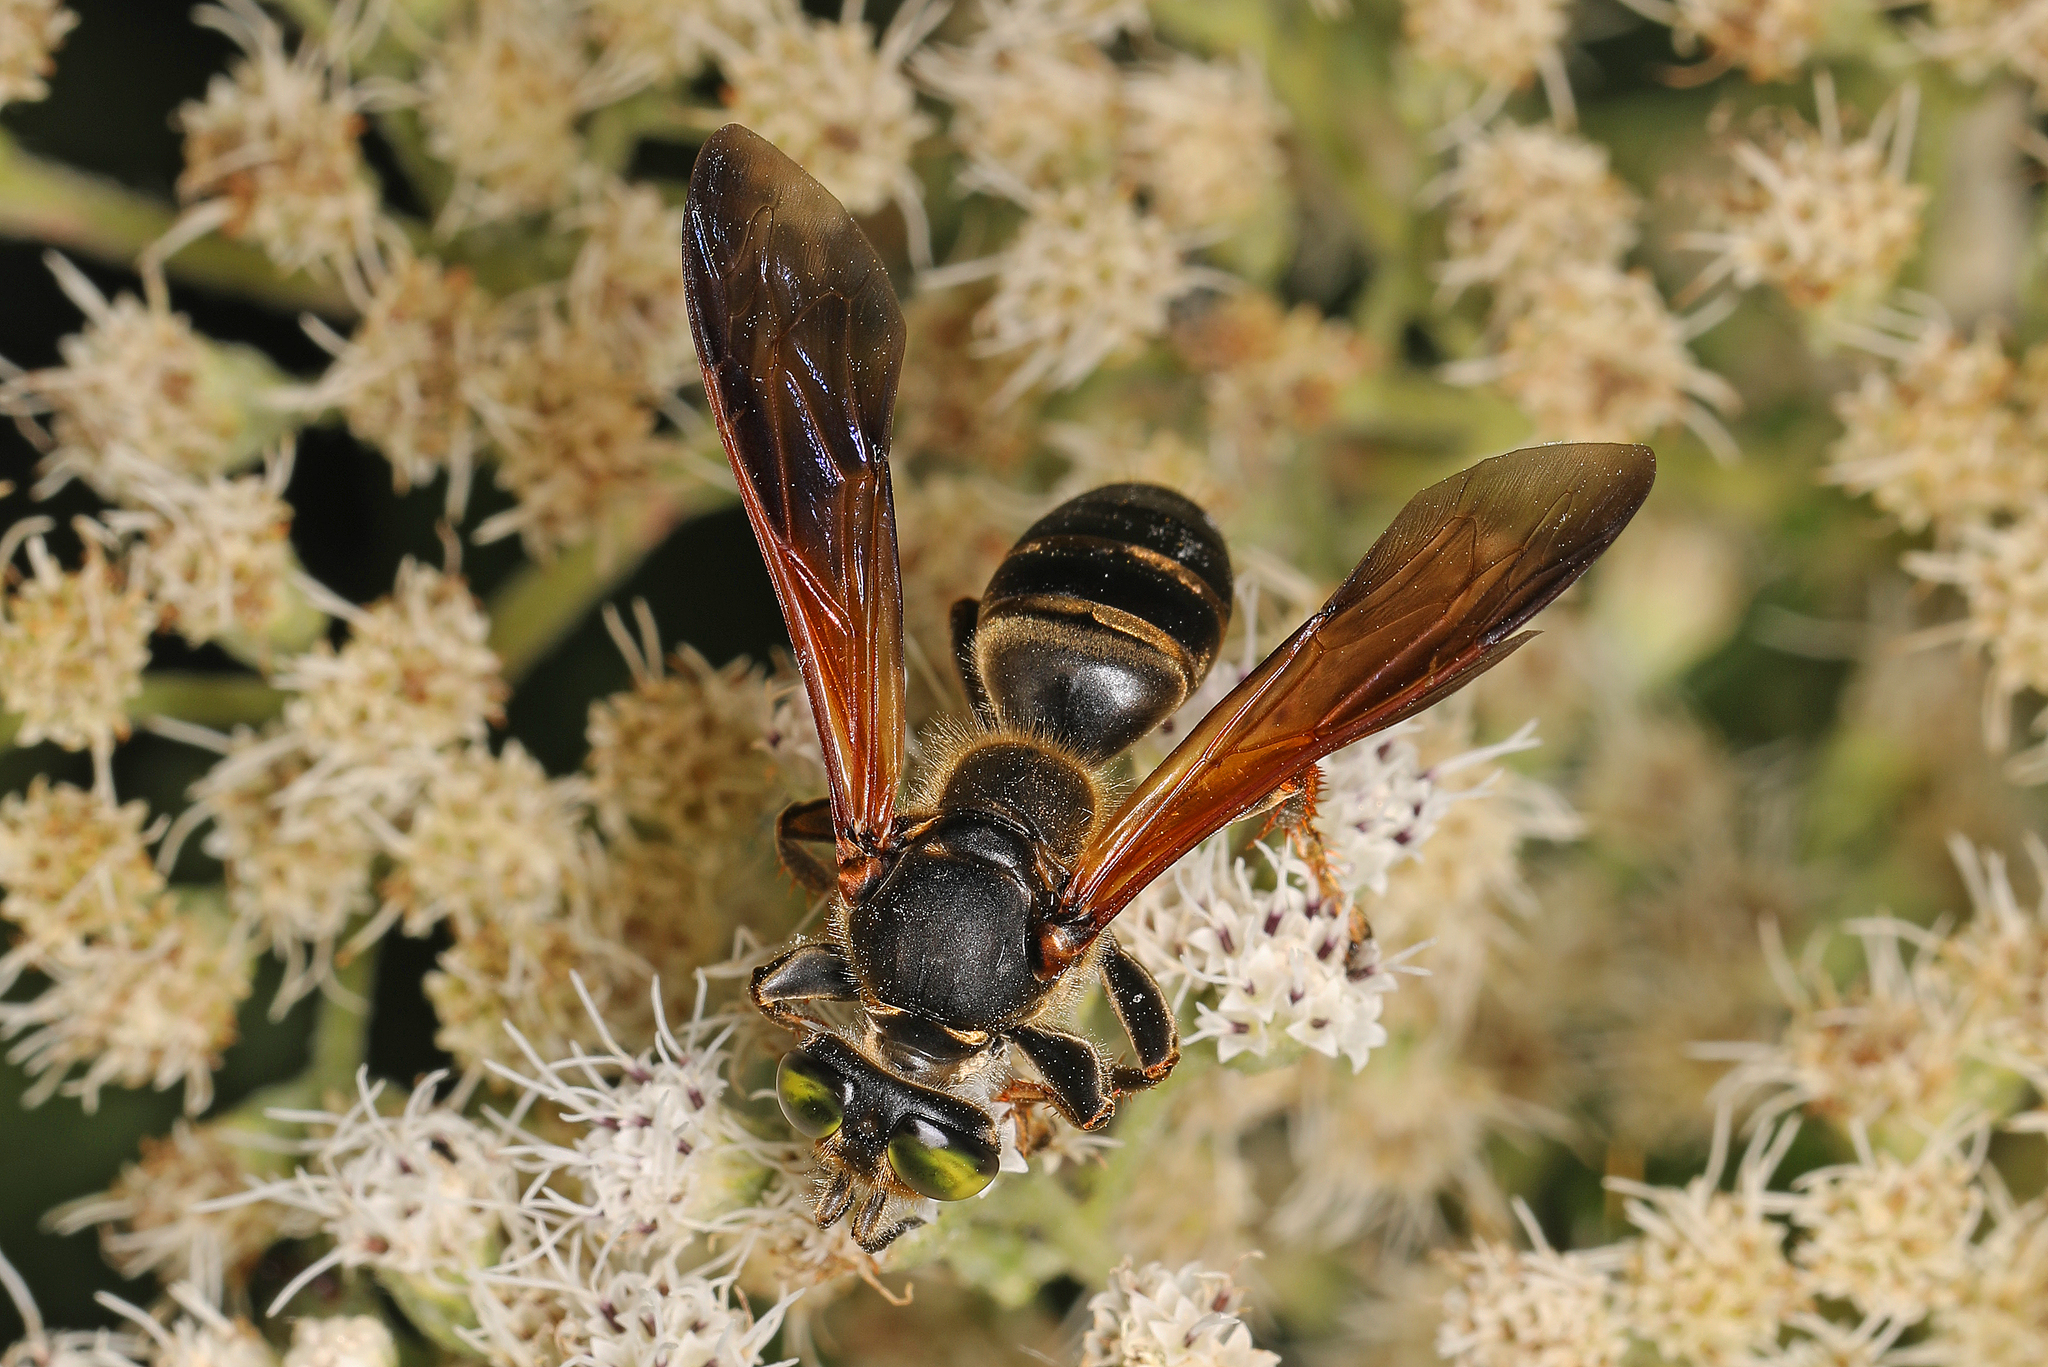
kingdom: Animalia
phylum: Arthropoda
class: Insecta
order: Hymenoptera
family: Crabronidae
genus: Tachytes
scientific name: Tachytes guatemalensis
